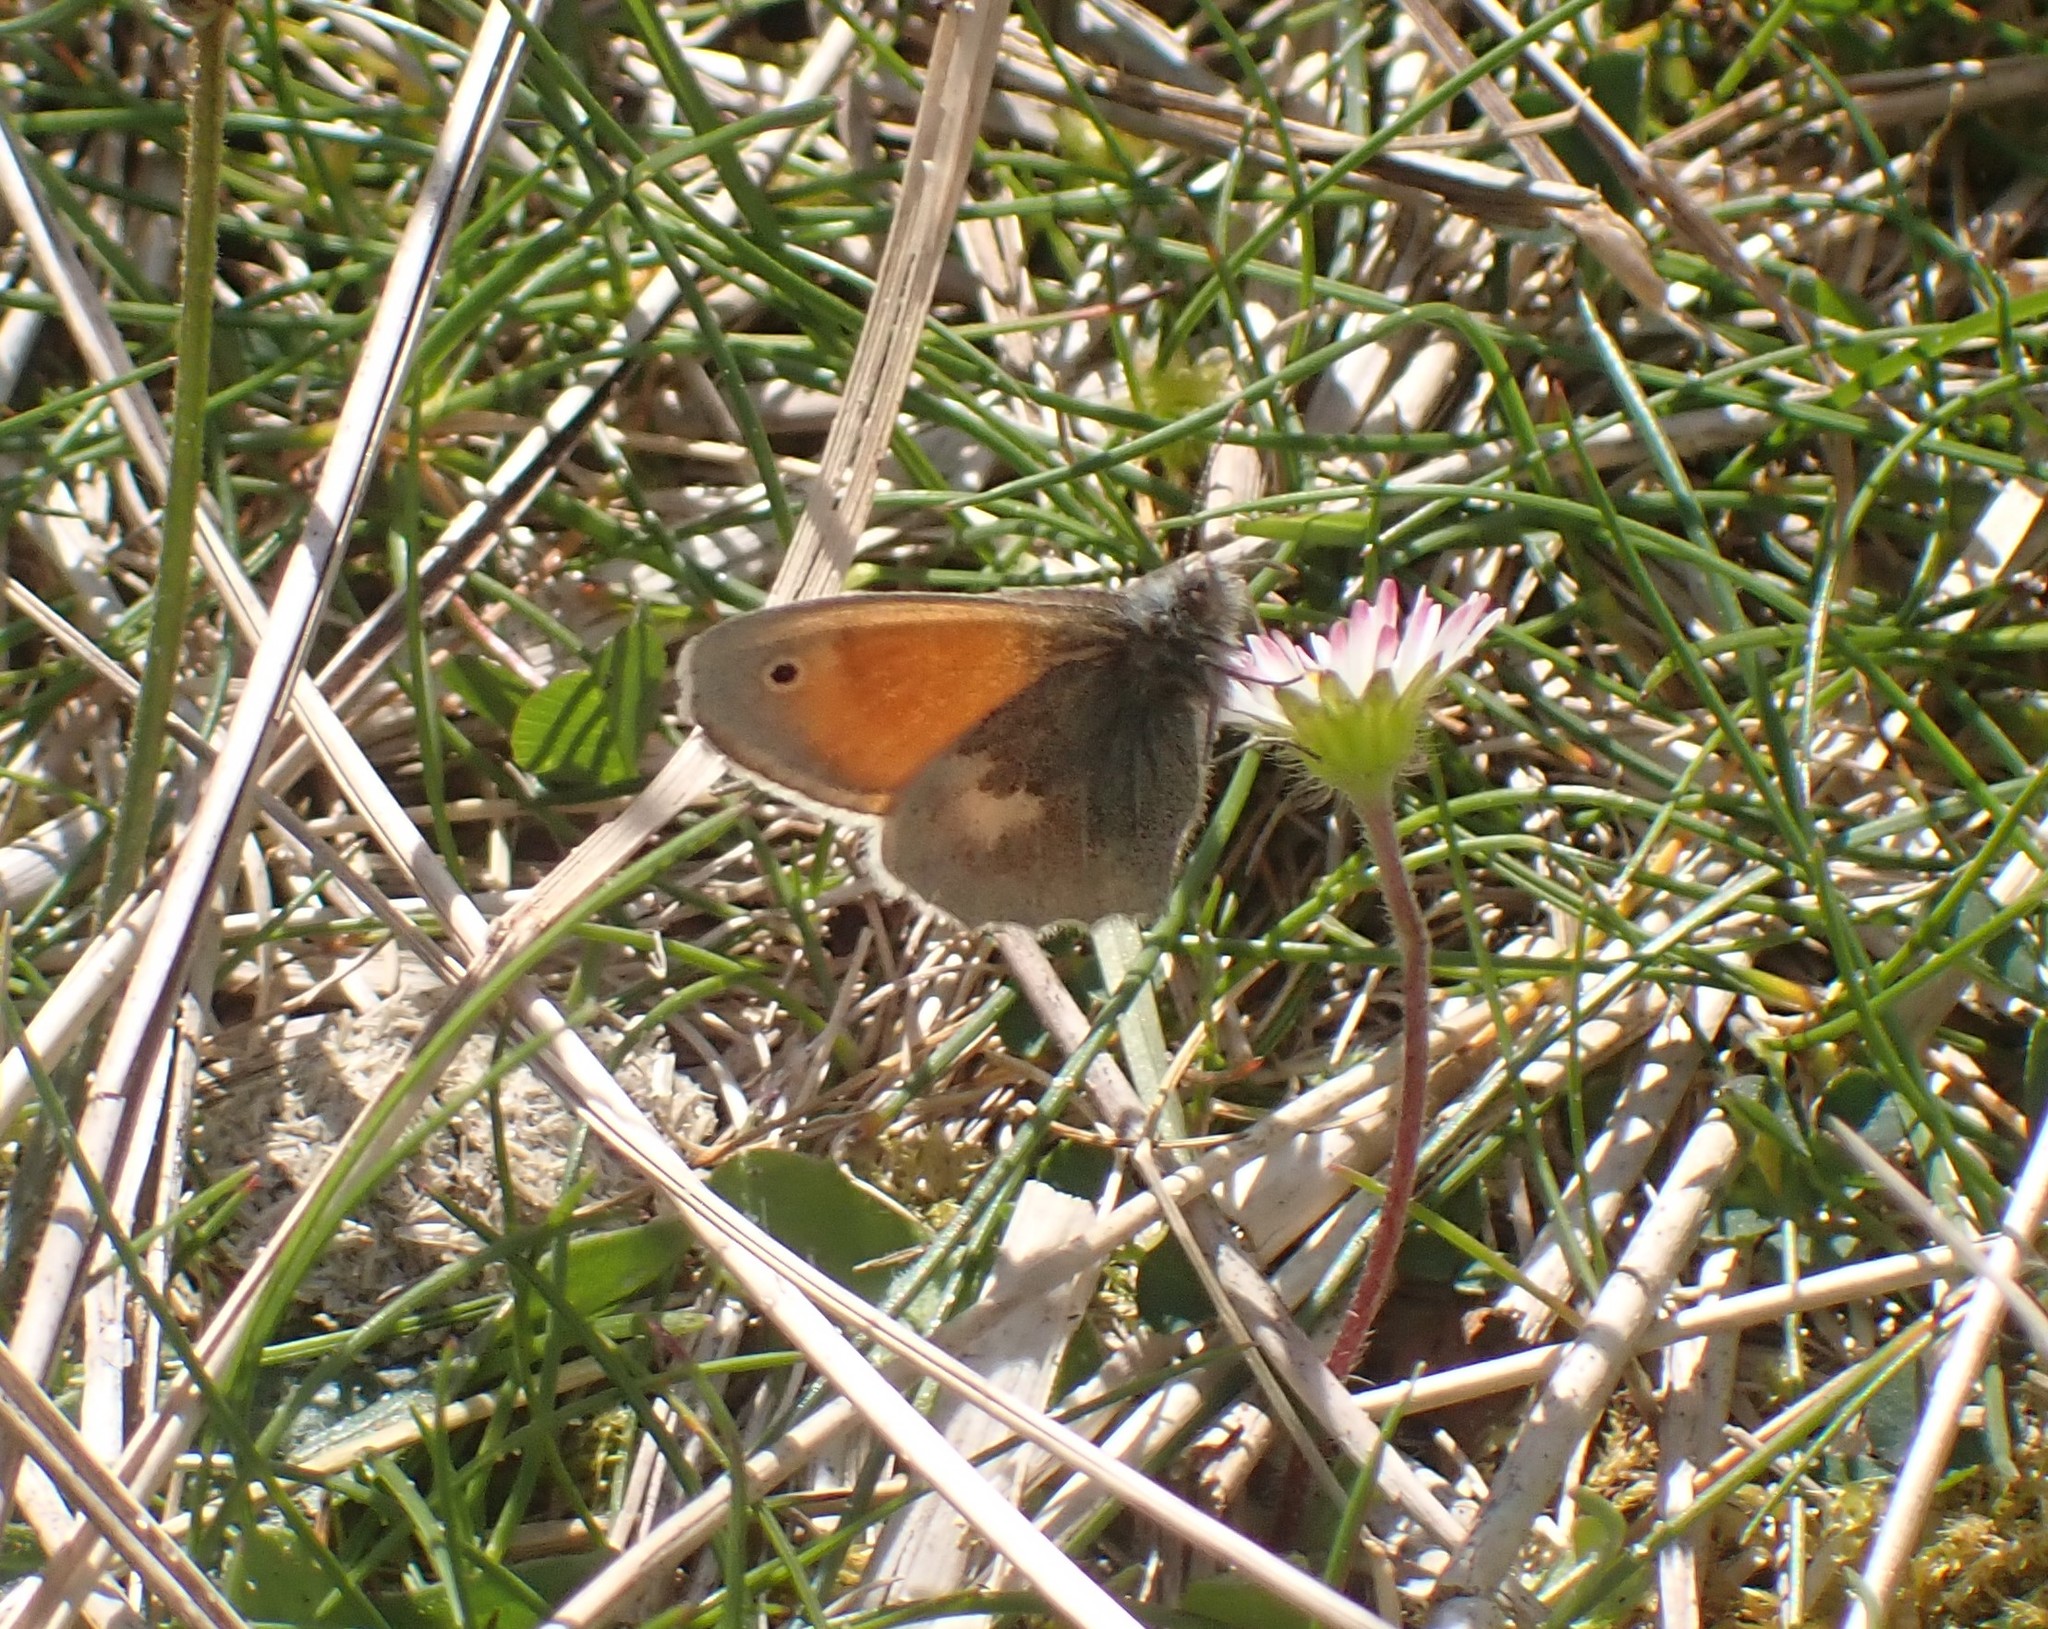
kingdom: Animalia
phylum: Arthropoda
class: Insecta
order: Lepidoptera
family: Nymphalidae
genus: Coenonympha
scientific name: Coenonympha pamphilus
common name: Small heath
